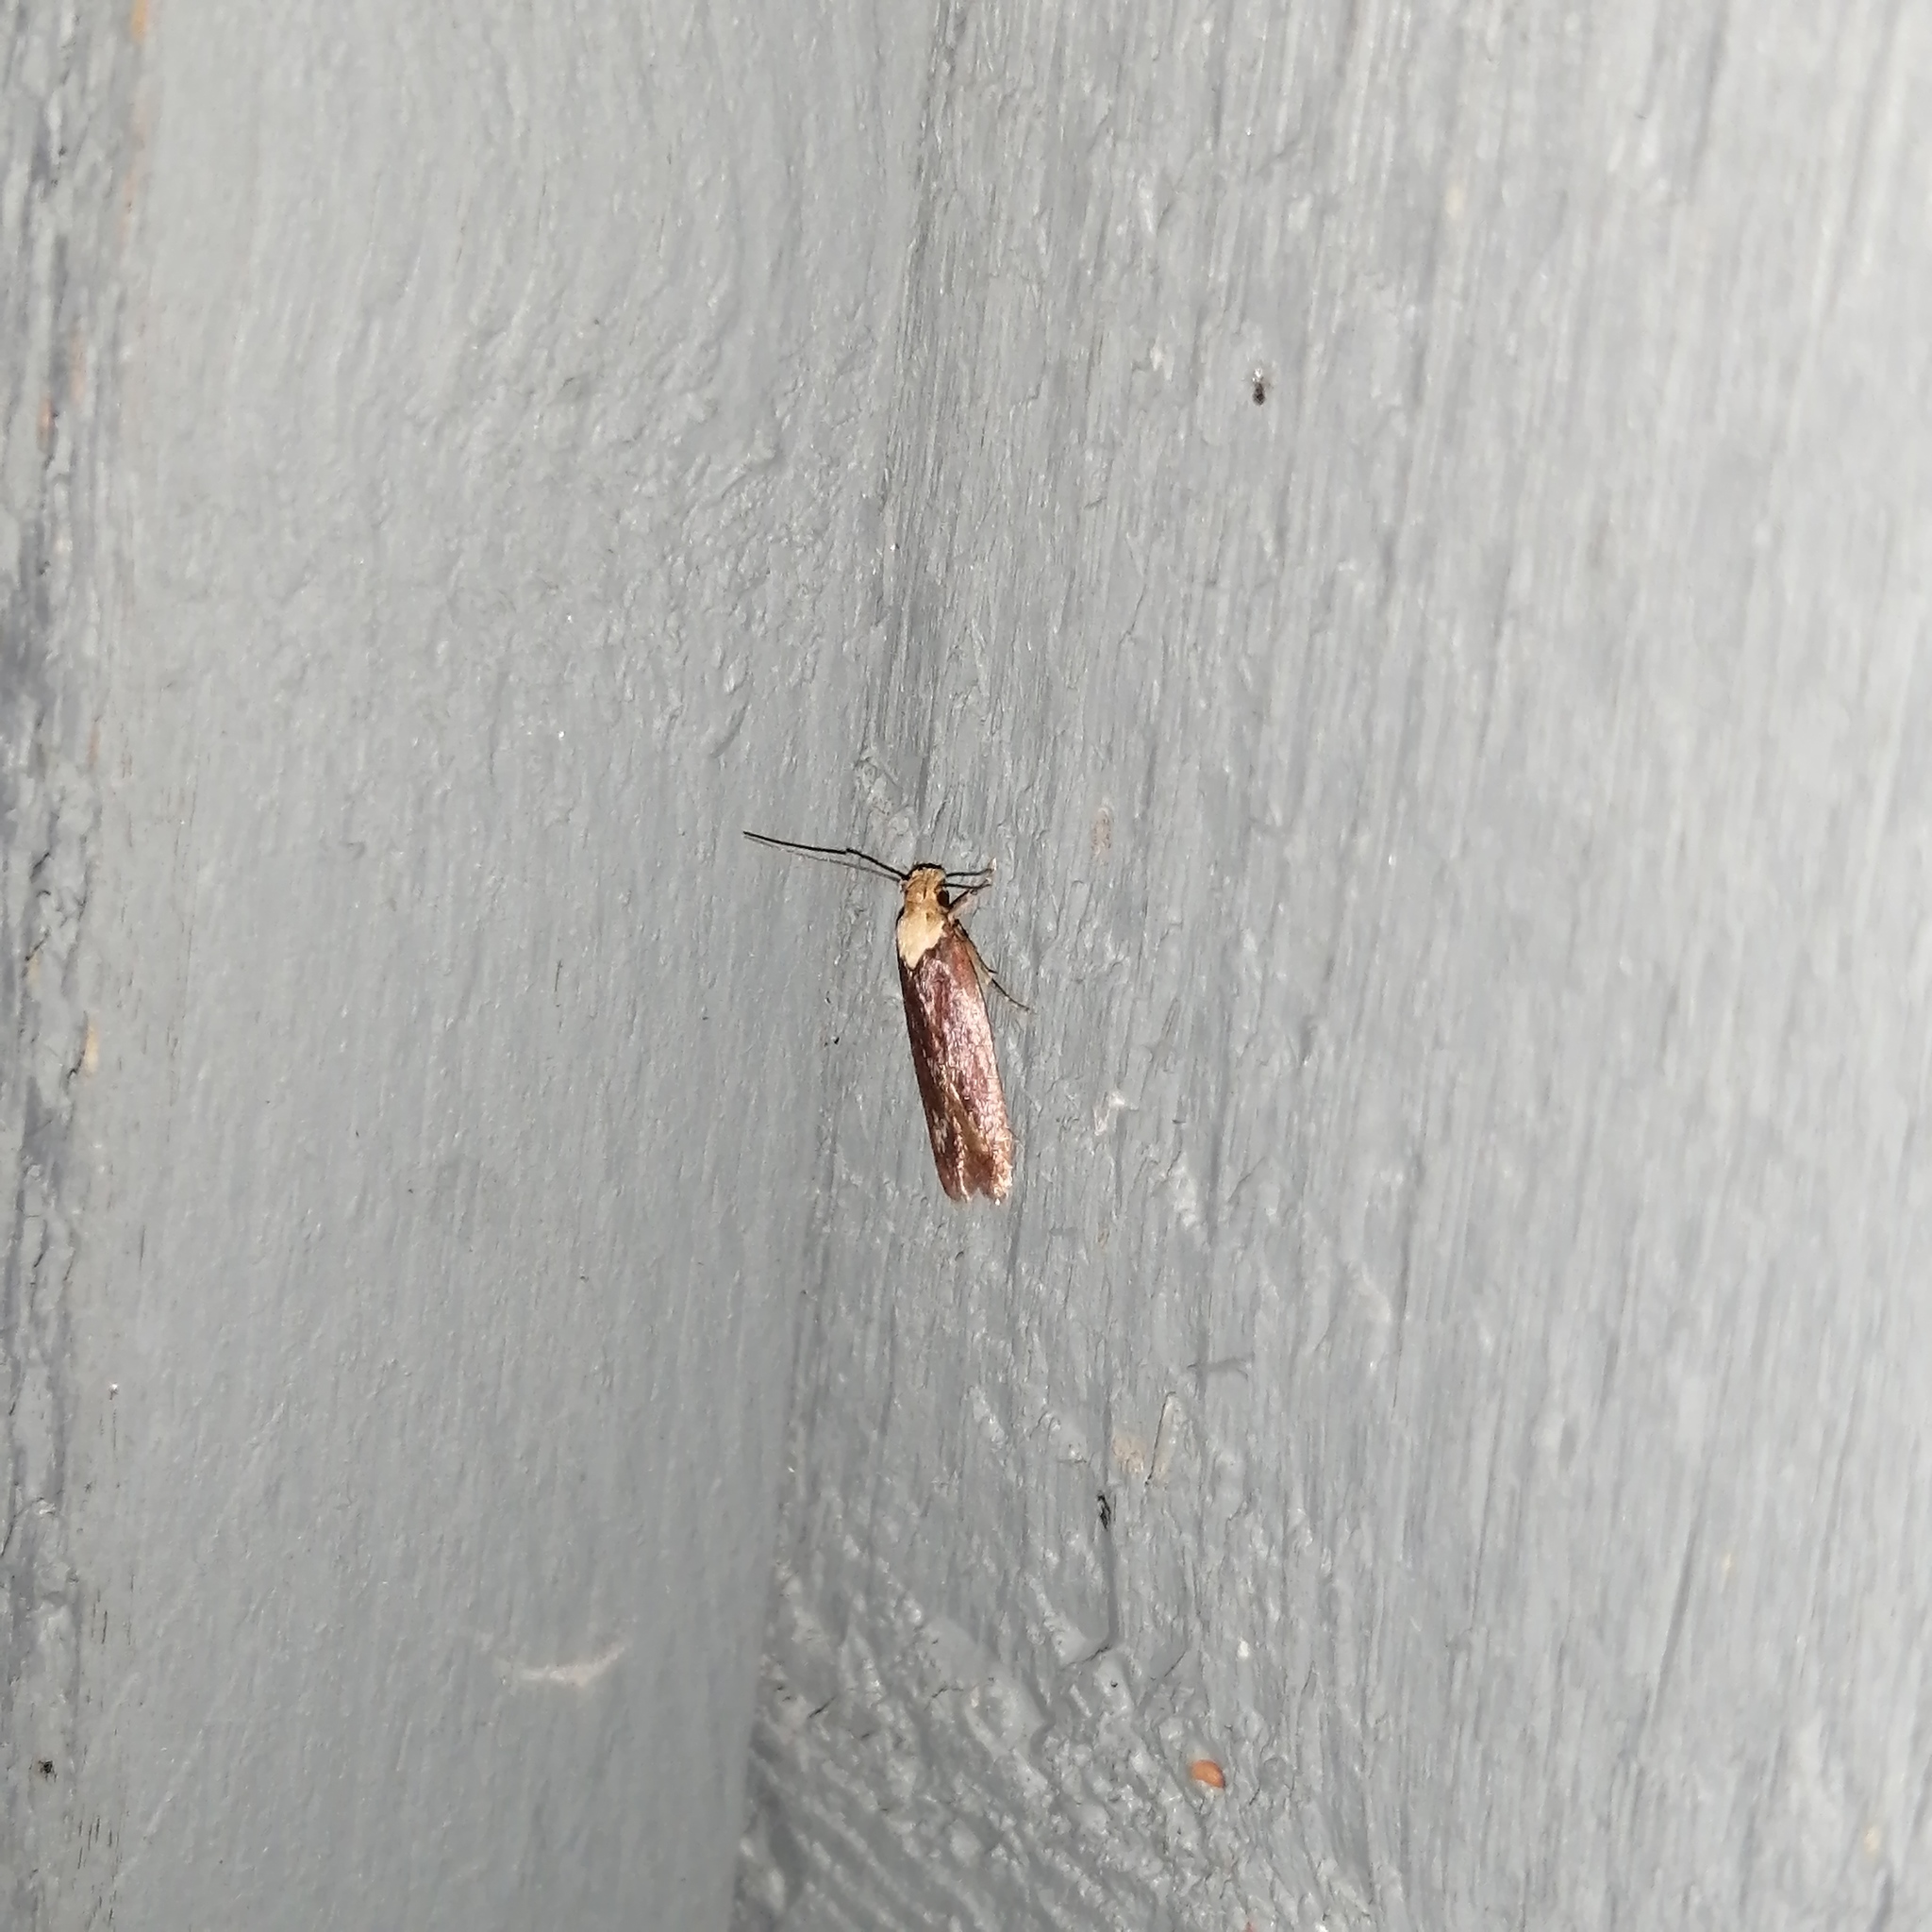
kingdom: Animalia
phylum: Arthropoda
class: Insecta
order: Lepidoptera
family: Depressariidae
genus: Depressaria
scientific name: Depressaria depressana
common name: Lost flat-body
